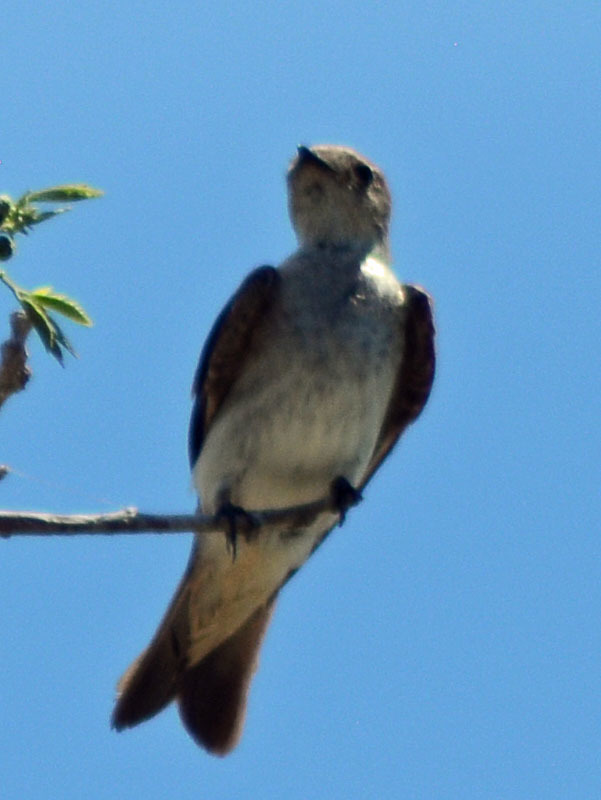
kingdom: Animalia
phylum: Chordata
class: Aves
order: Passeriformes
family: Hirundinidae
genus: Stelgidopteryx
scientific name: Stelgidopteryx serripennis
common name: Northern rough-winged swallow
